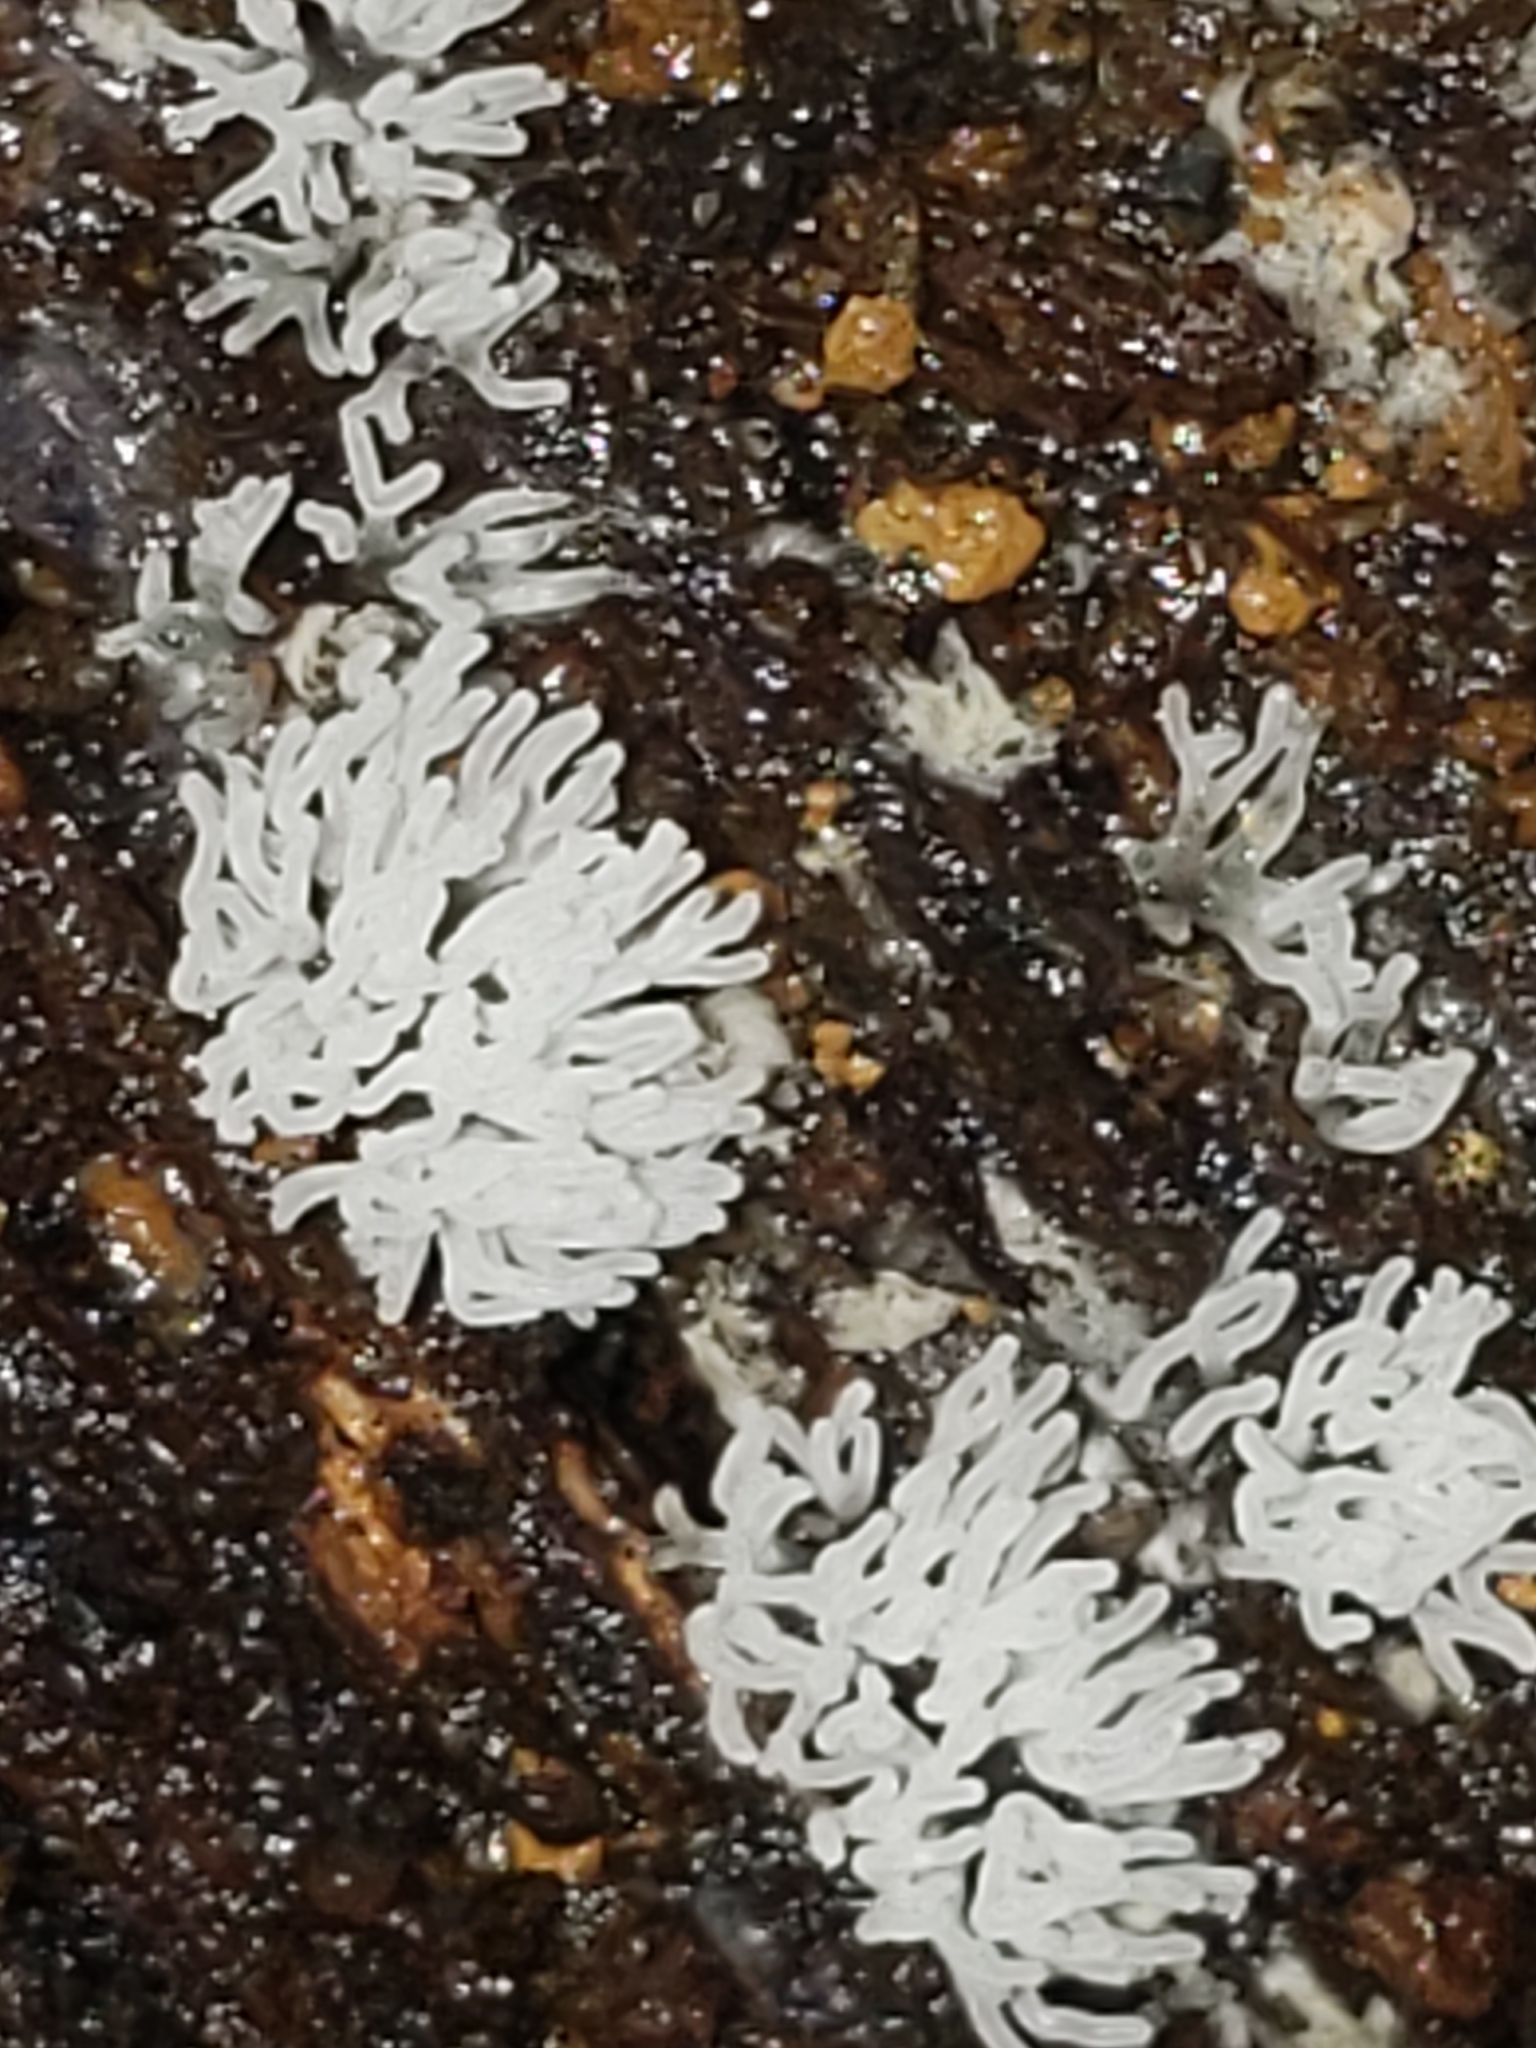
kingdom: Protozoa
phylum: Mycetozoa
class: Protosteliomycetes
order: Ceratiomyxales
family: Ceratiomyxaceae
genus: Ceratiomyxa
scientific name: Ceratiomyxa fruticulosa
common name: Honeycomb coral slime mold
